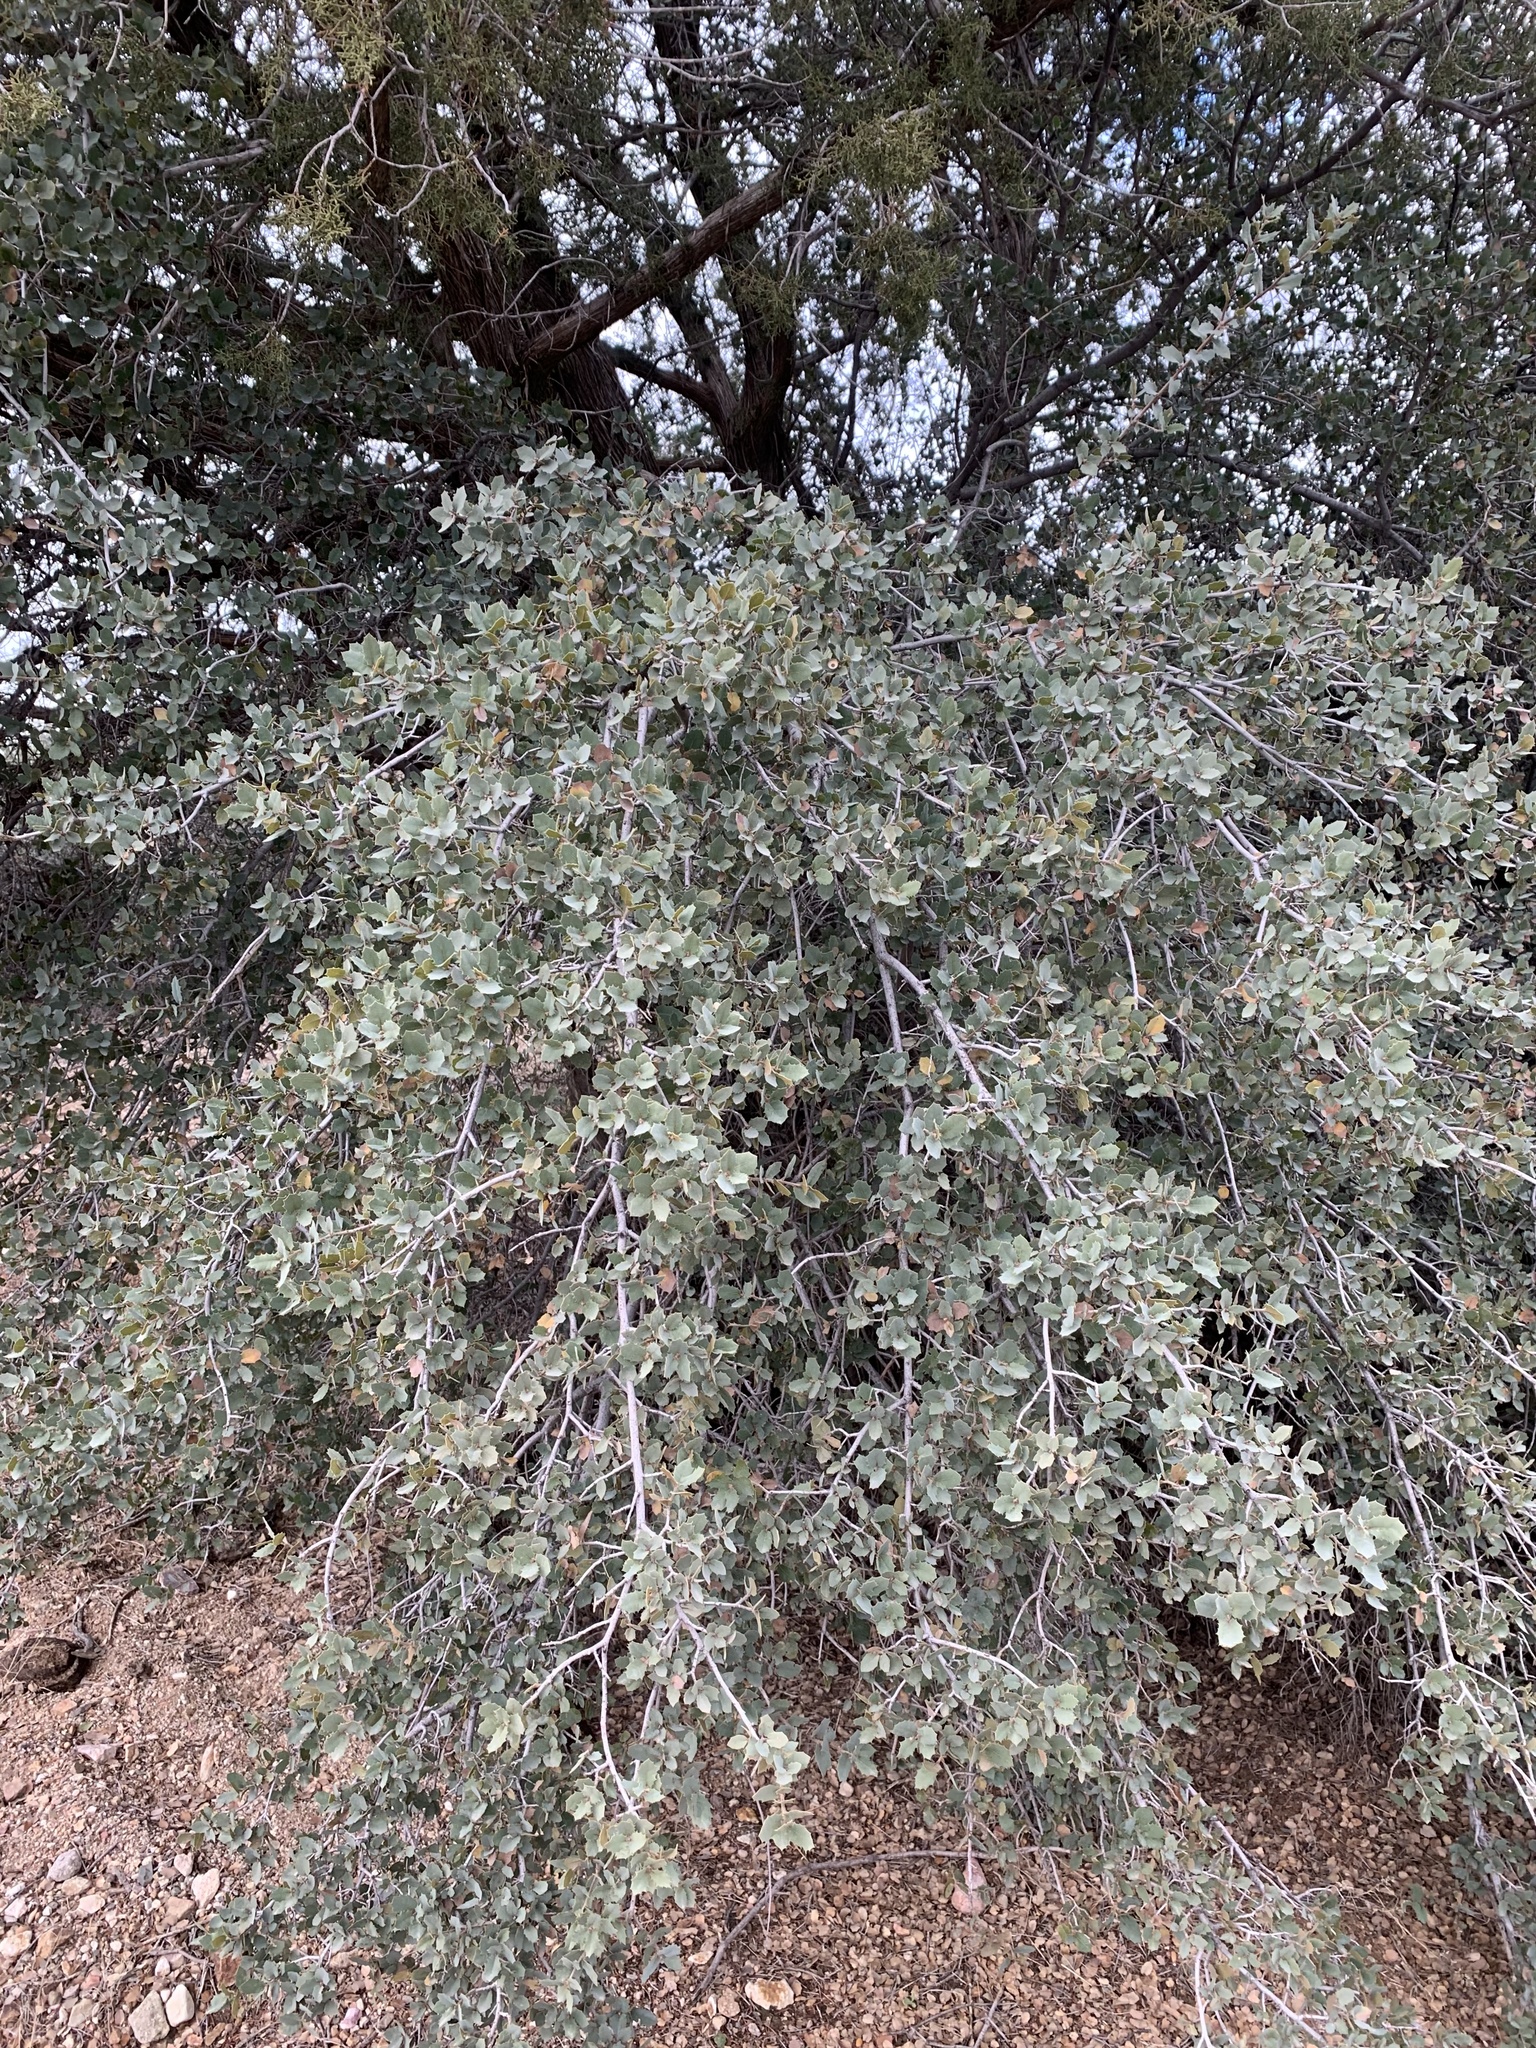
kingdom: Plantae
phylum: Tracheophyta
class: Magnoliopsida
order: Fagales
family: Fagaceae
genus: Quercus
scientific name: Quercus turbinella
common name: Sonoran scrub oak
